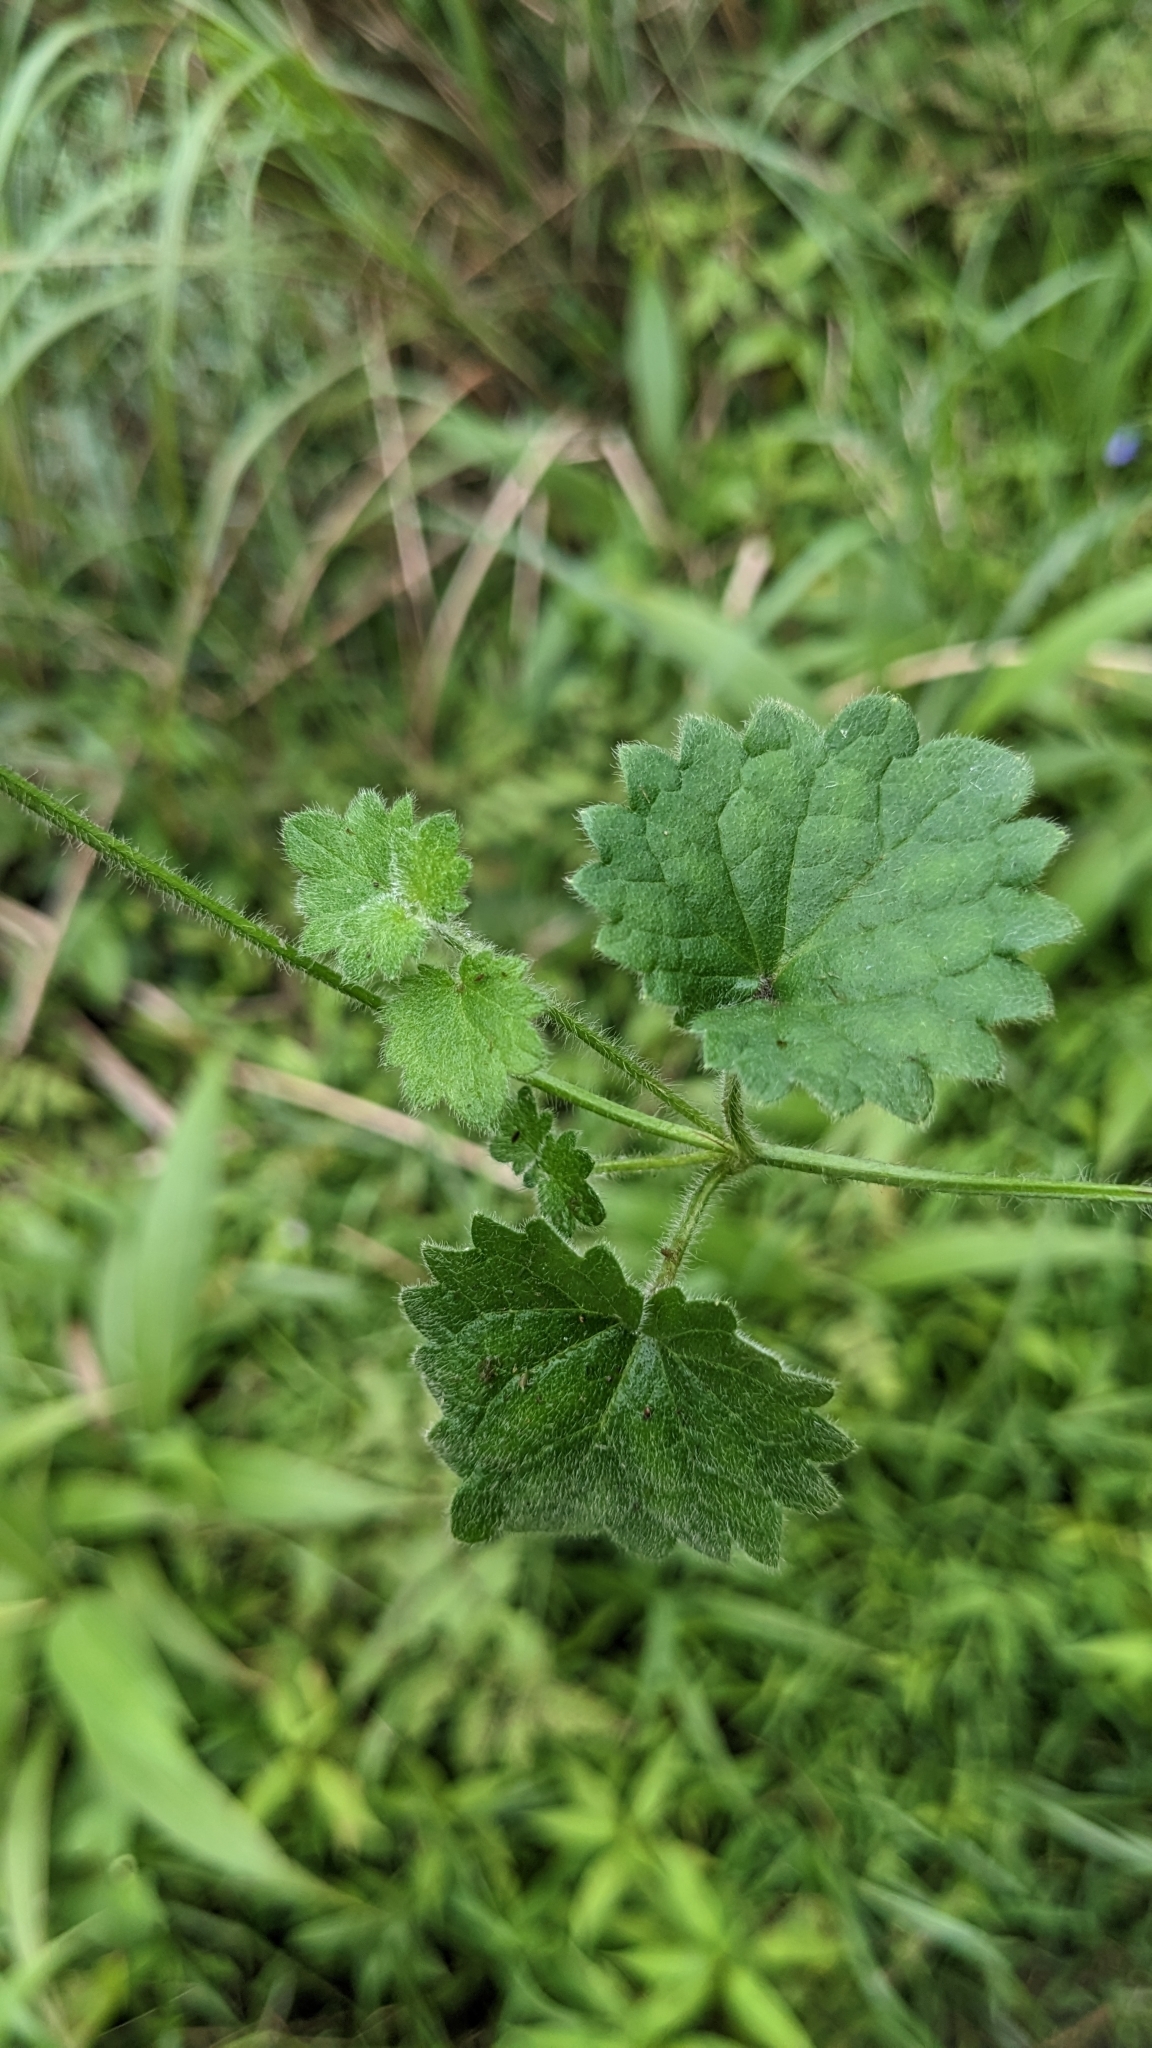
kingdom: Plantae
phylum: Tracheophyta
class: Magnoliopsida
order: Lamiales
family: Lamiaceae
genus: Suzukia
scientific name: Suzukia shikikunensis
